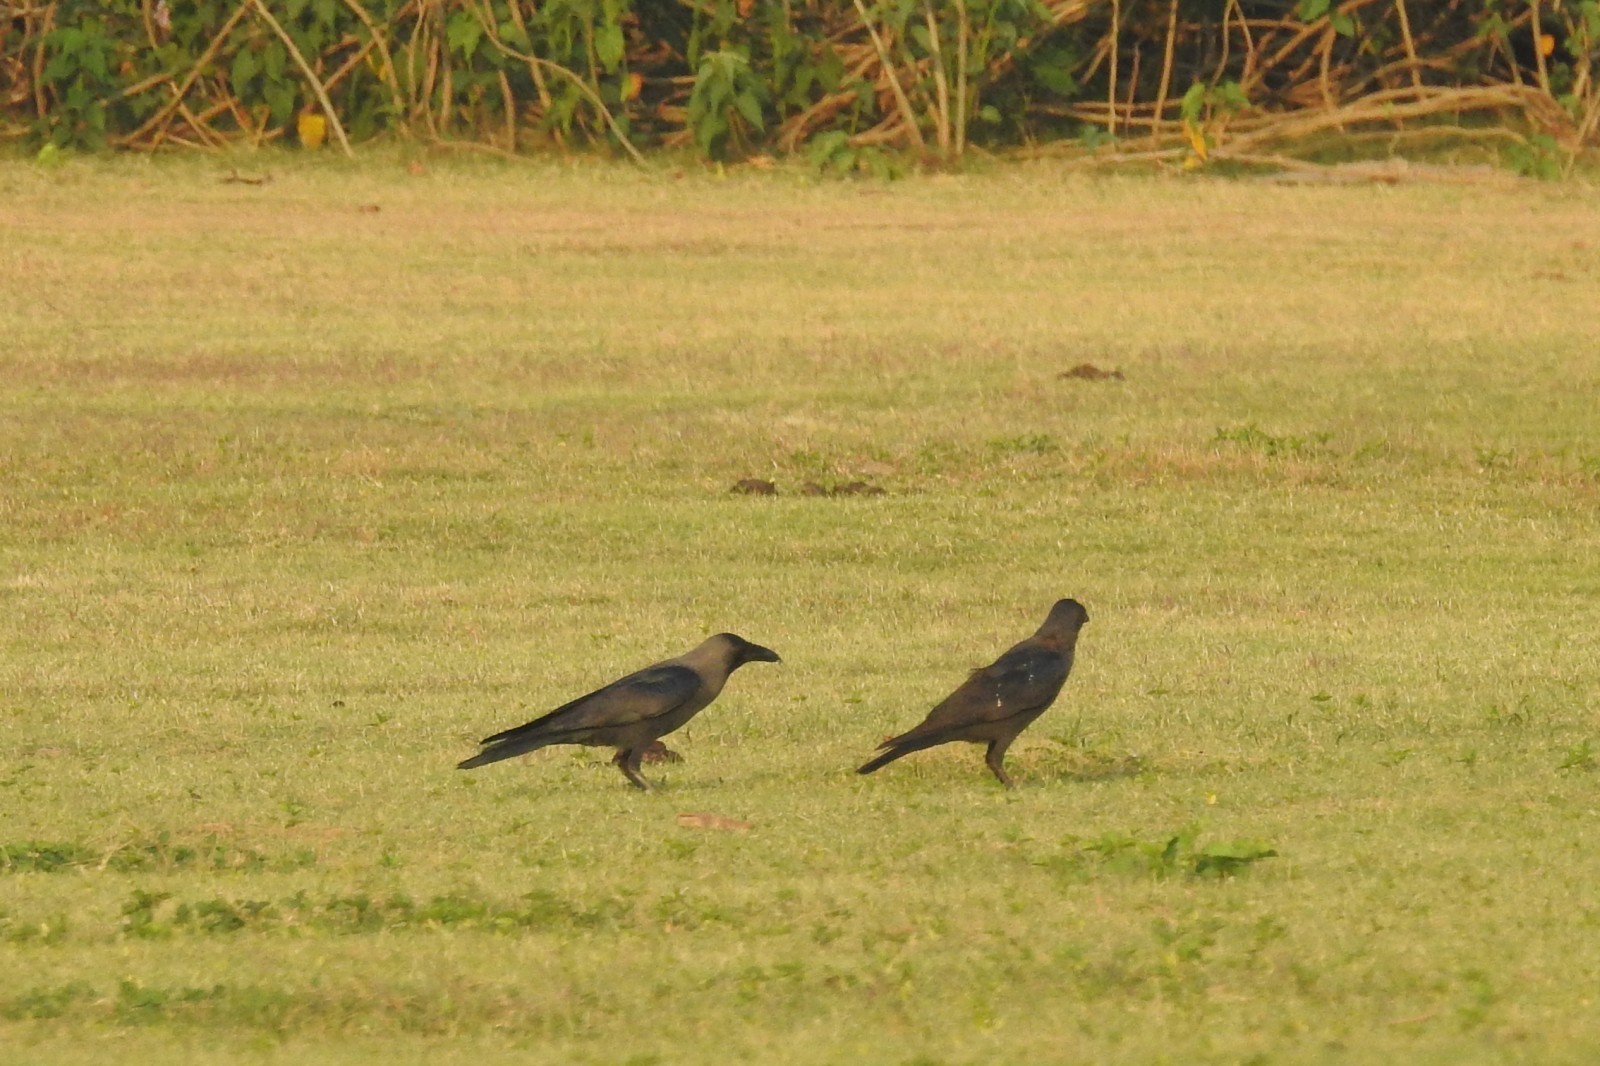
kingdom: Animalia
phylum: Chordata
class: Aves
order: Passeriformes
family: Corvidae
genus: Corvus
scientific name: Corvus splendens
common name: House crow
